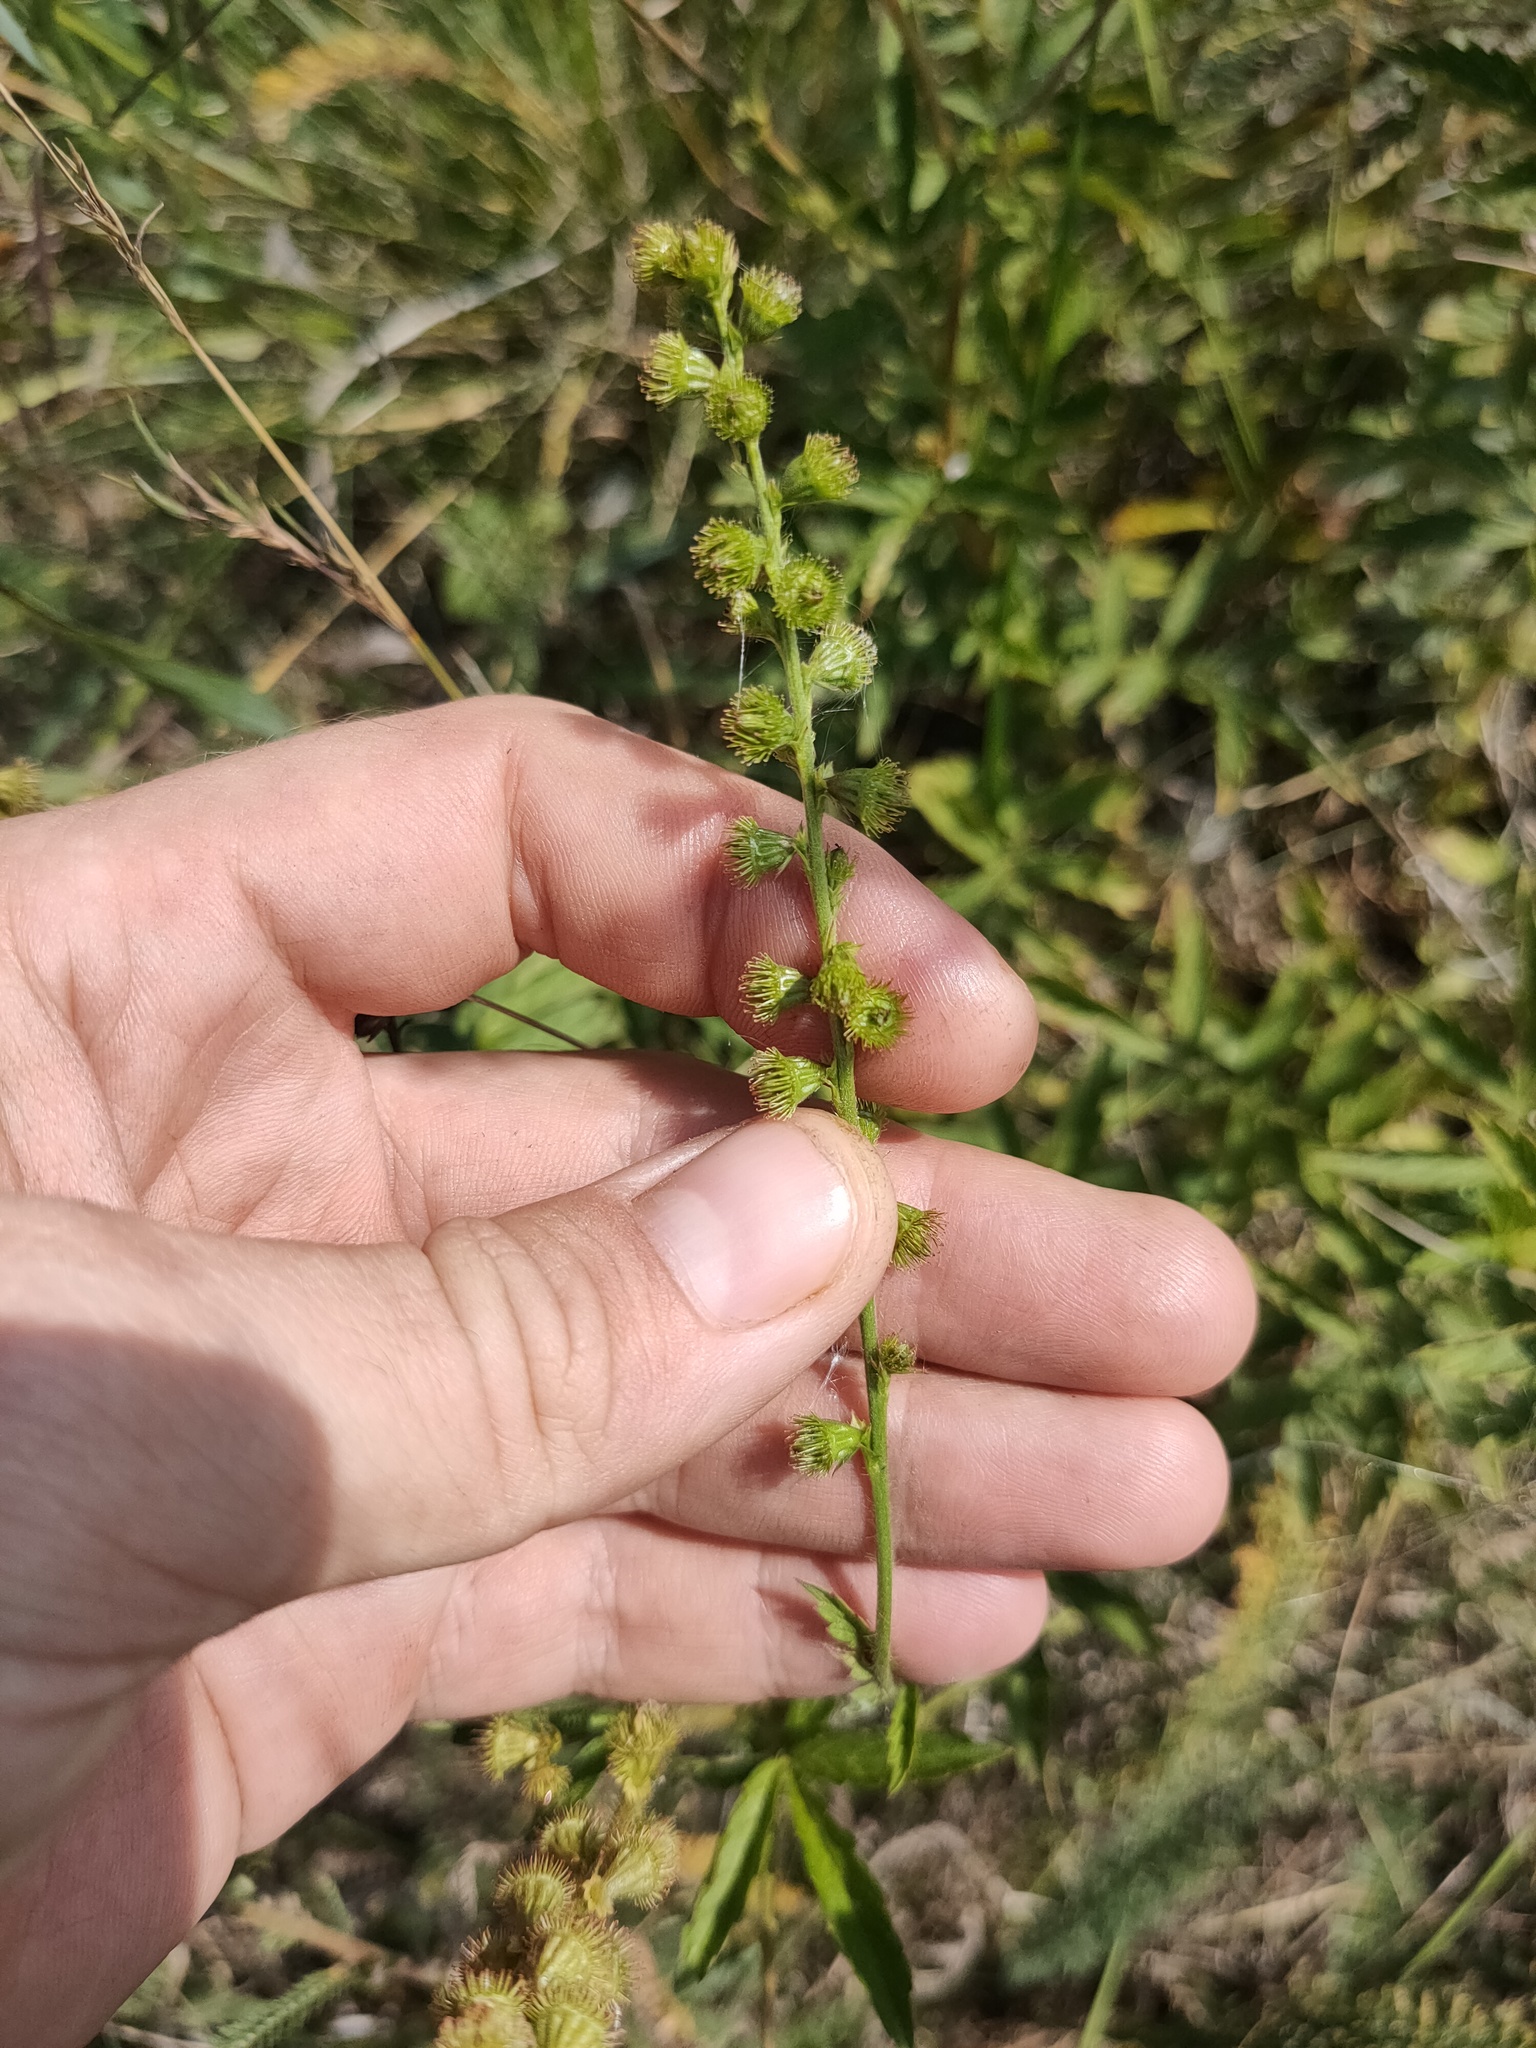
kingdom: Plantae
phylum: Tracheophyta
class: Magnoliopsida
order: Rosales
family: Rosaceae
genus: Agrimonia
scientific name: Agrimonia pilosa
